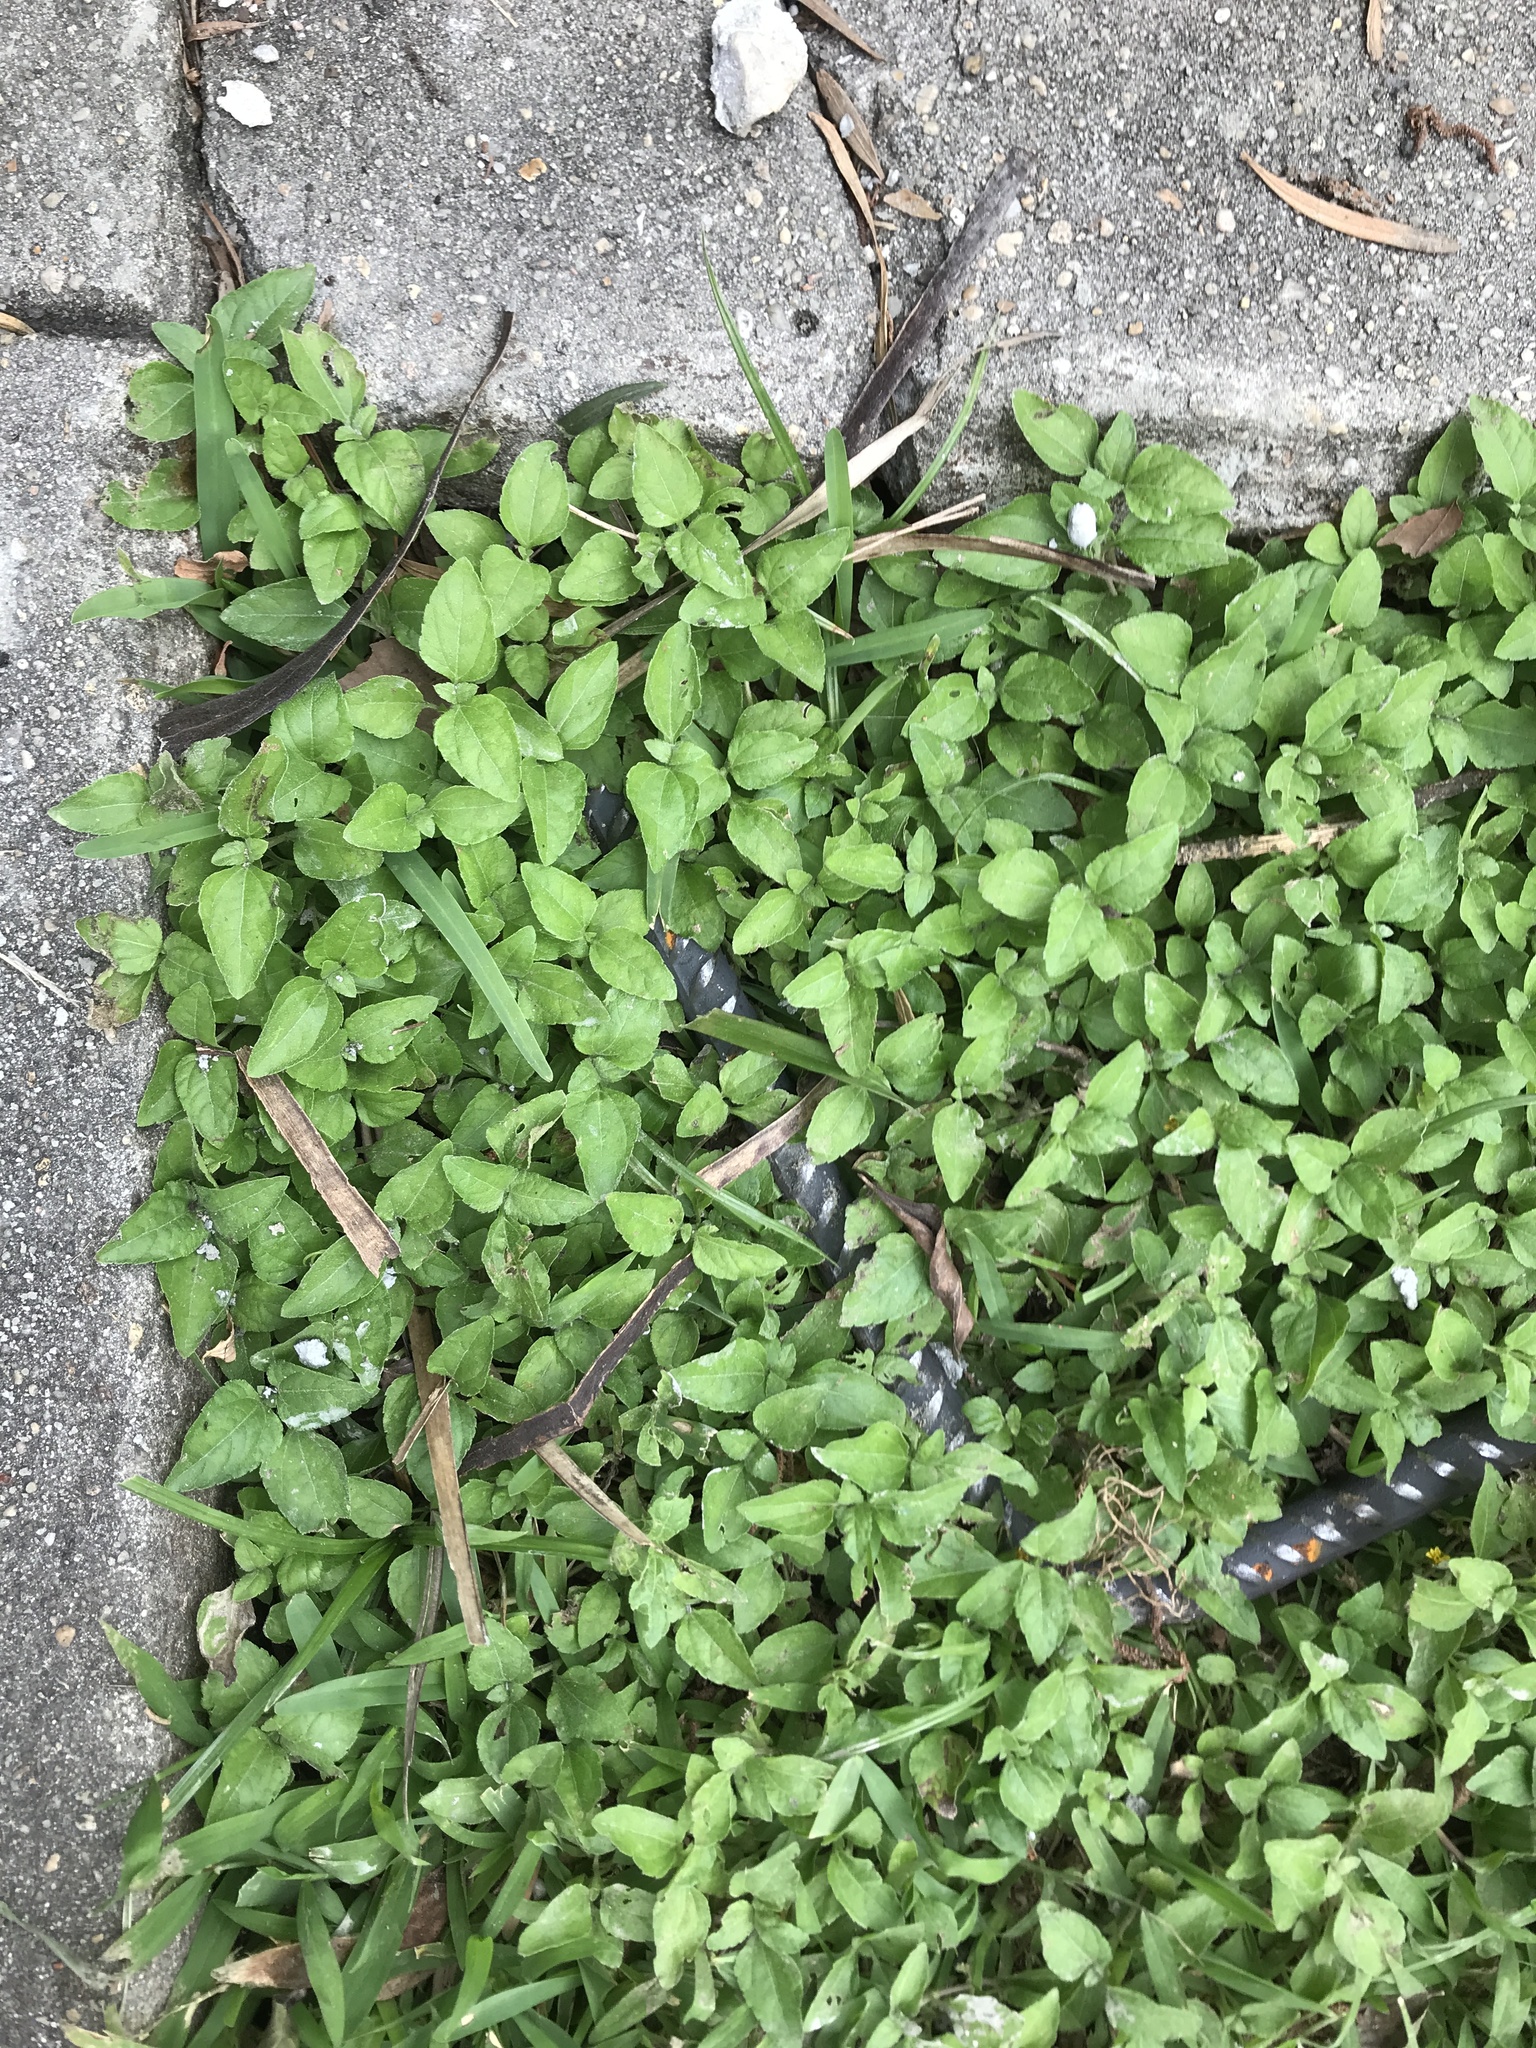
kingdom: Plantae
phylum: Tracheophyta
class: Magnoliopsida
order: Asterales
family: Asteraceae
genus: Calyptocarpus
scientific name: Calyptocarpus vialis
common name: Straggler daisy
